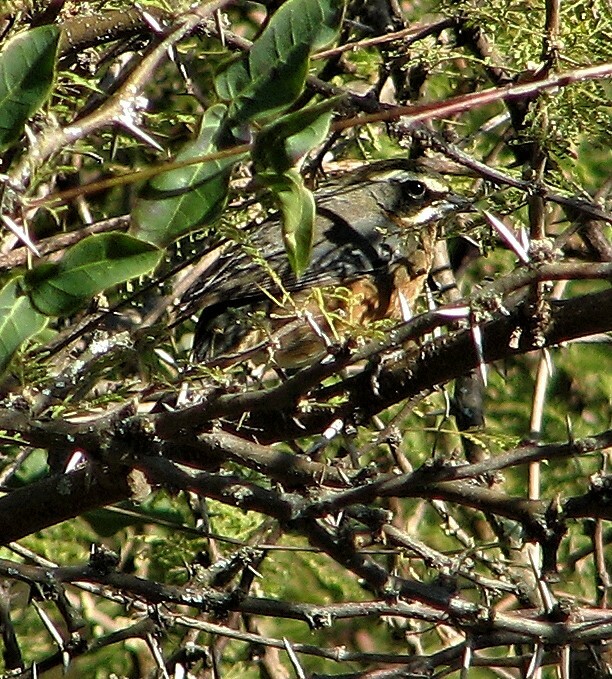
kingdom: Animalia
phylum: Chordata
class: Aves
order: Passeriformes
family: Thraupidae
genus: Poospiza
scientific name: Poospiza whitii
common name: Black-and-chestnut warbling finch
